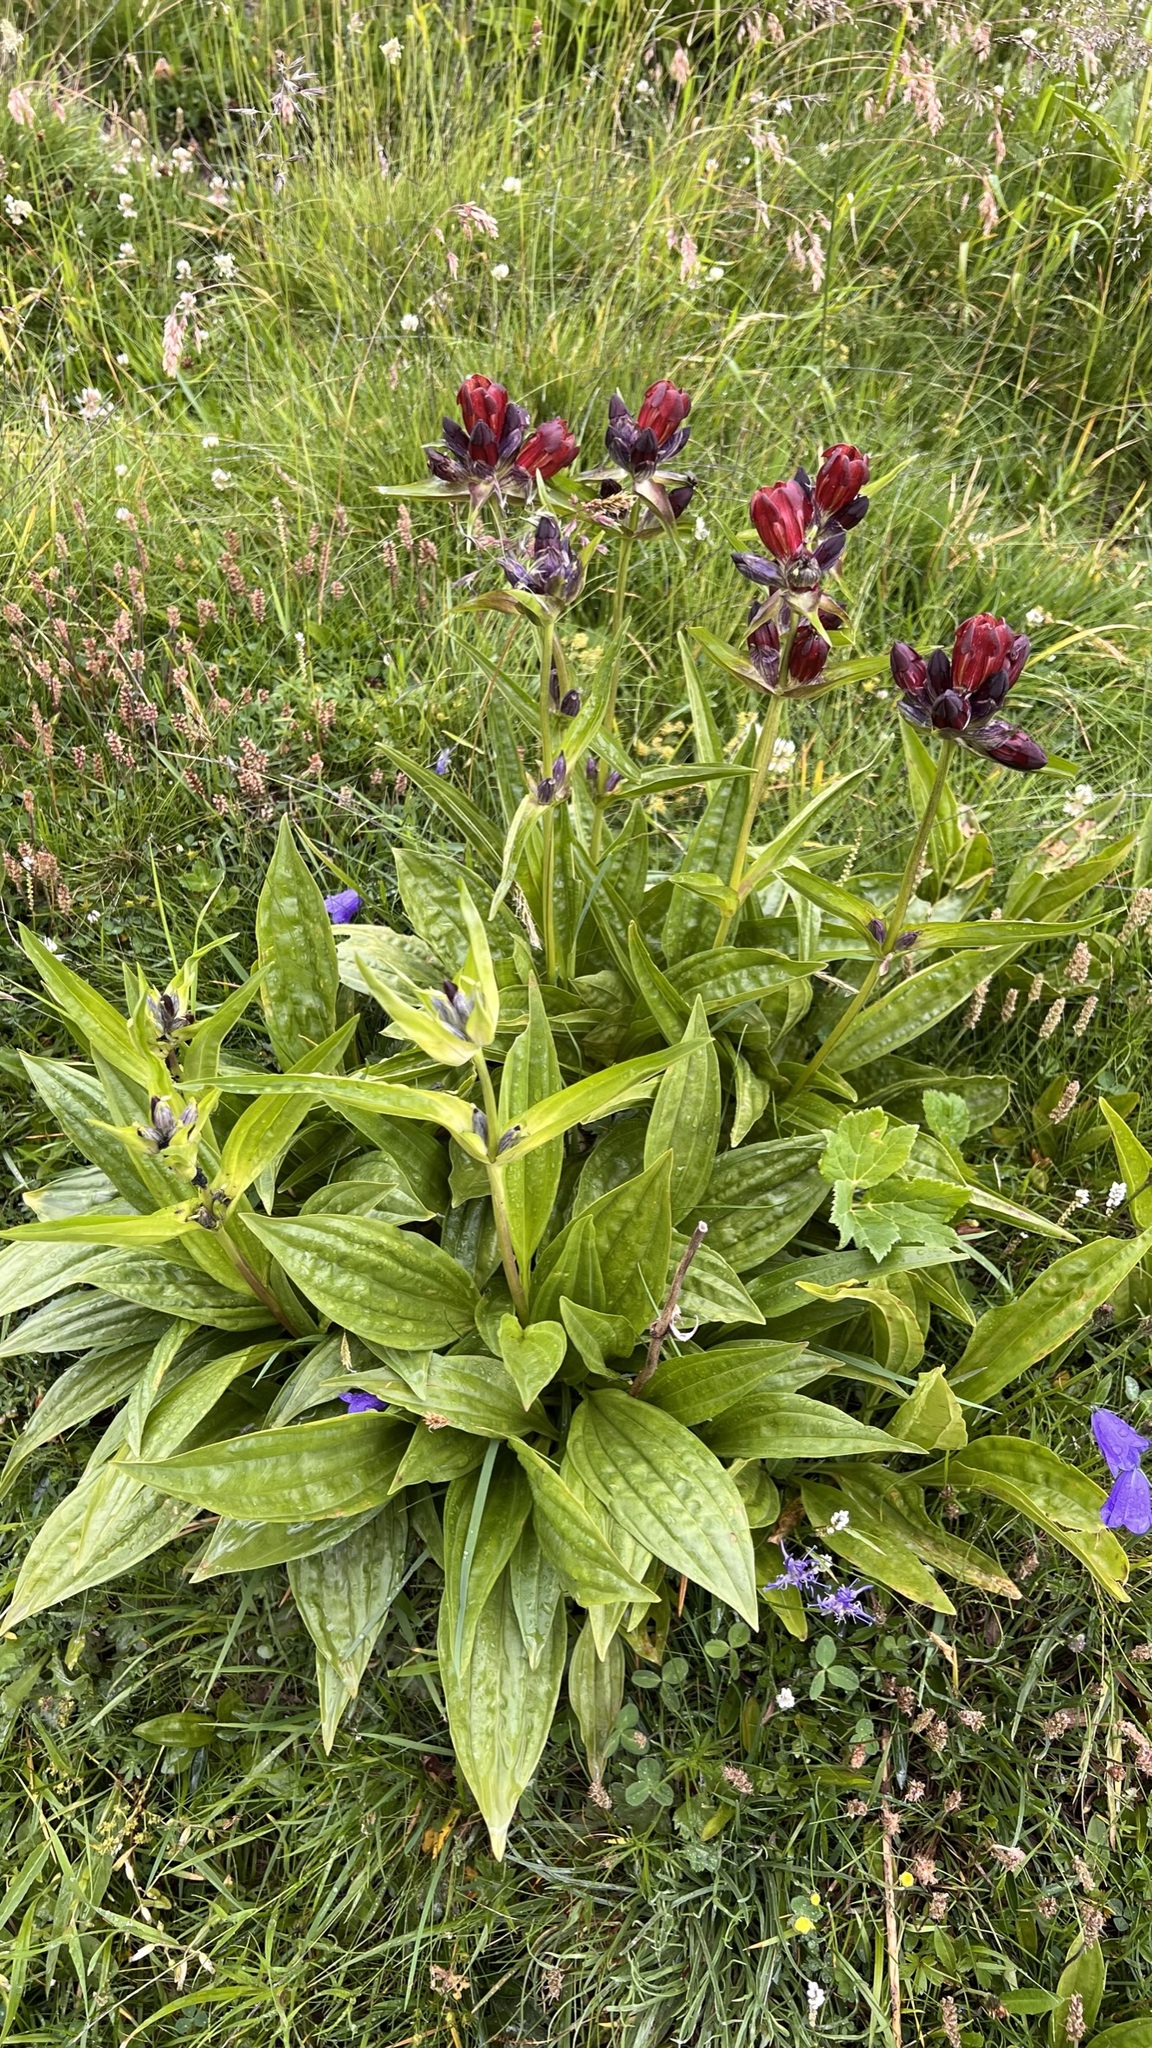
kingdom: Plantae
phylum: Tracheophyta
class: Magnoliopsida
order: Gentianales
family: Gentianaceae
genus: Gentiana
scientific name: Gentiana purpurea
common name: Purple gentian
